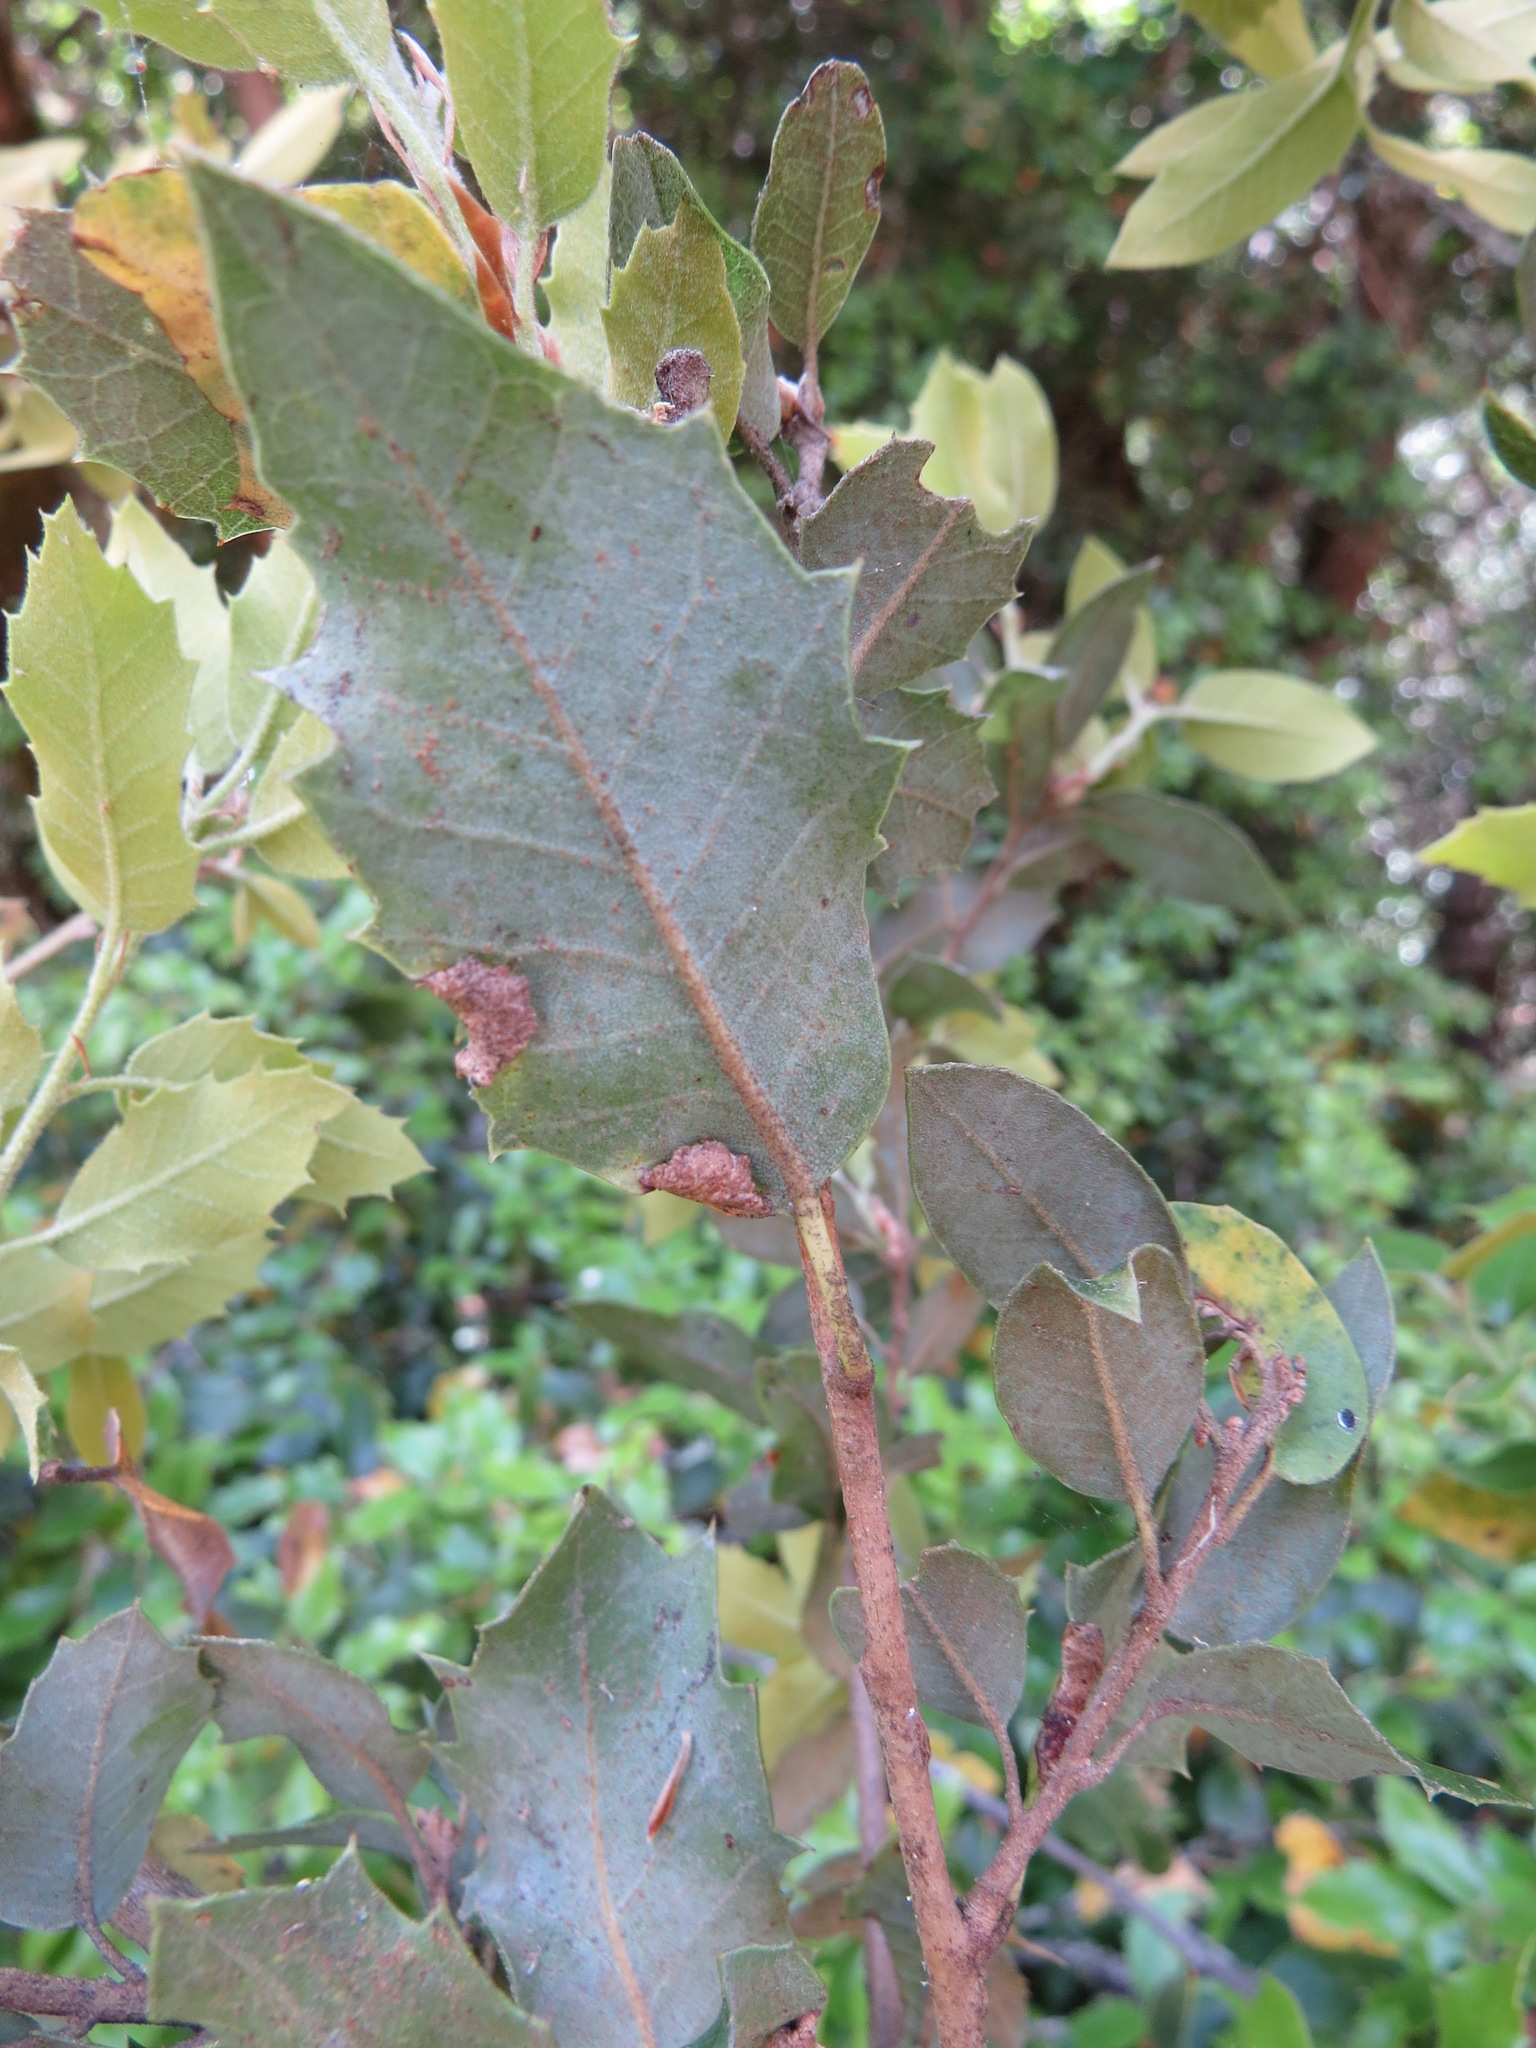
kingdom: Animalia
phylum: Arthropoda
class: Insecta
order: Diptera
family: Cecidomyiidae
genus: Dasineura
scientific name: Dasineura silvestrii
